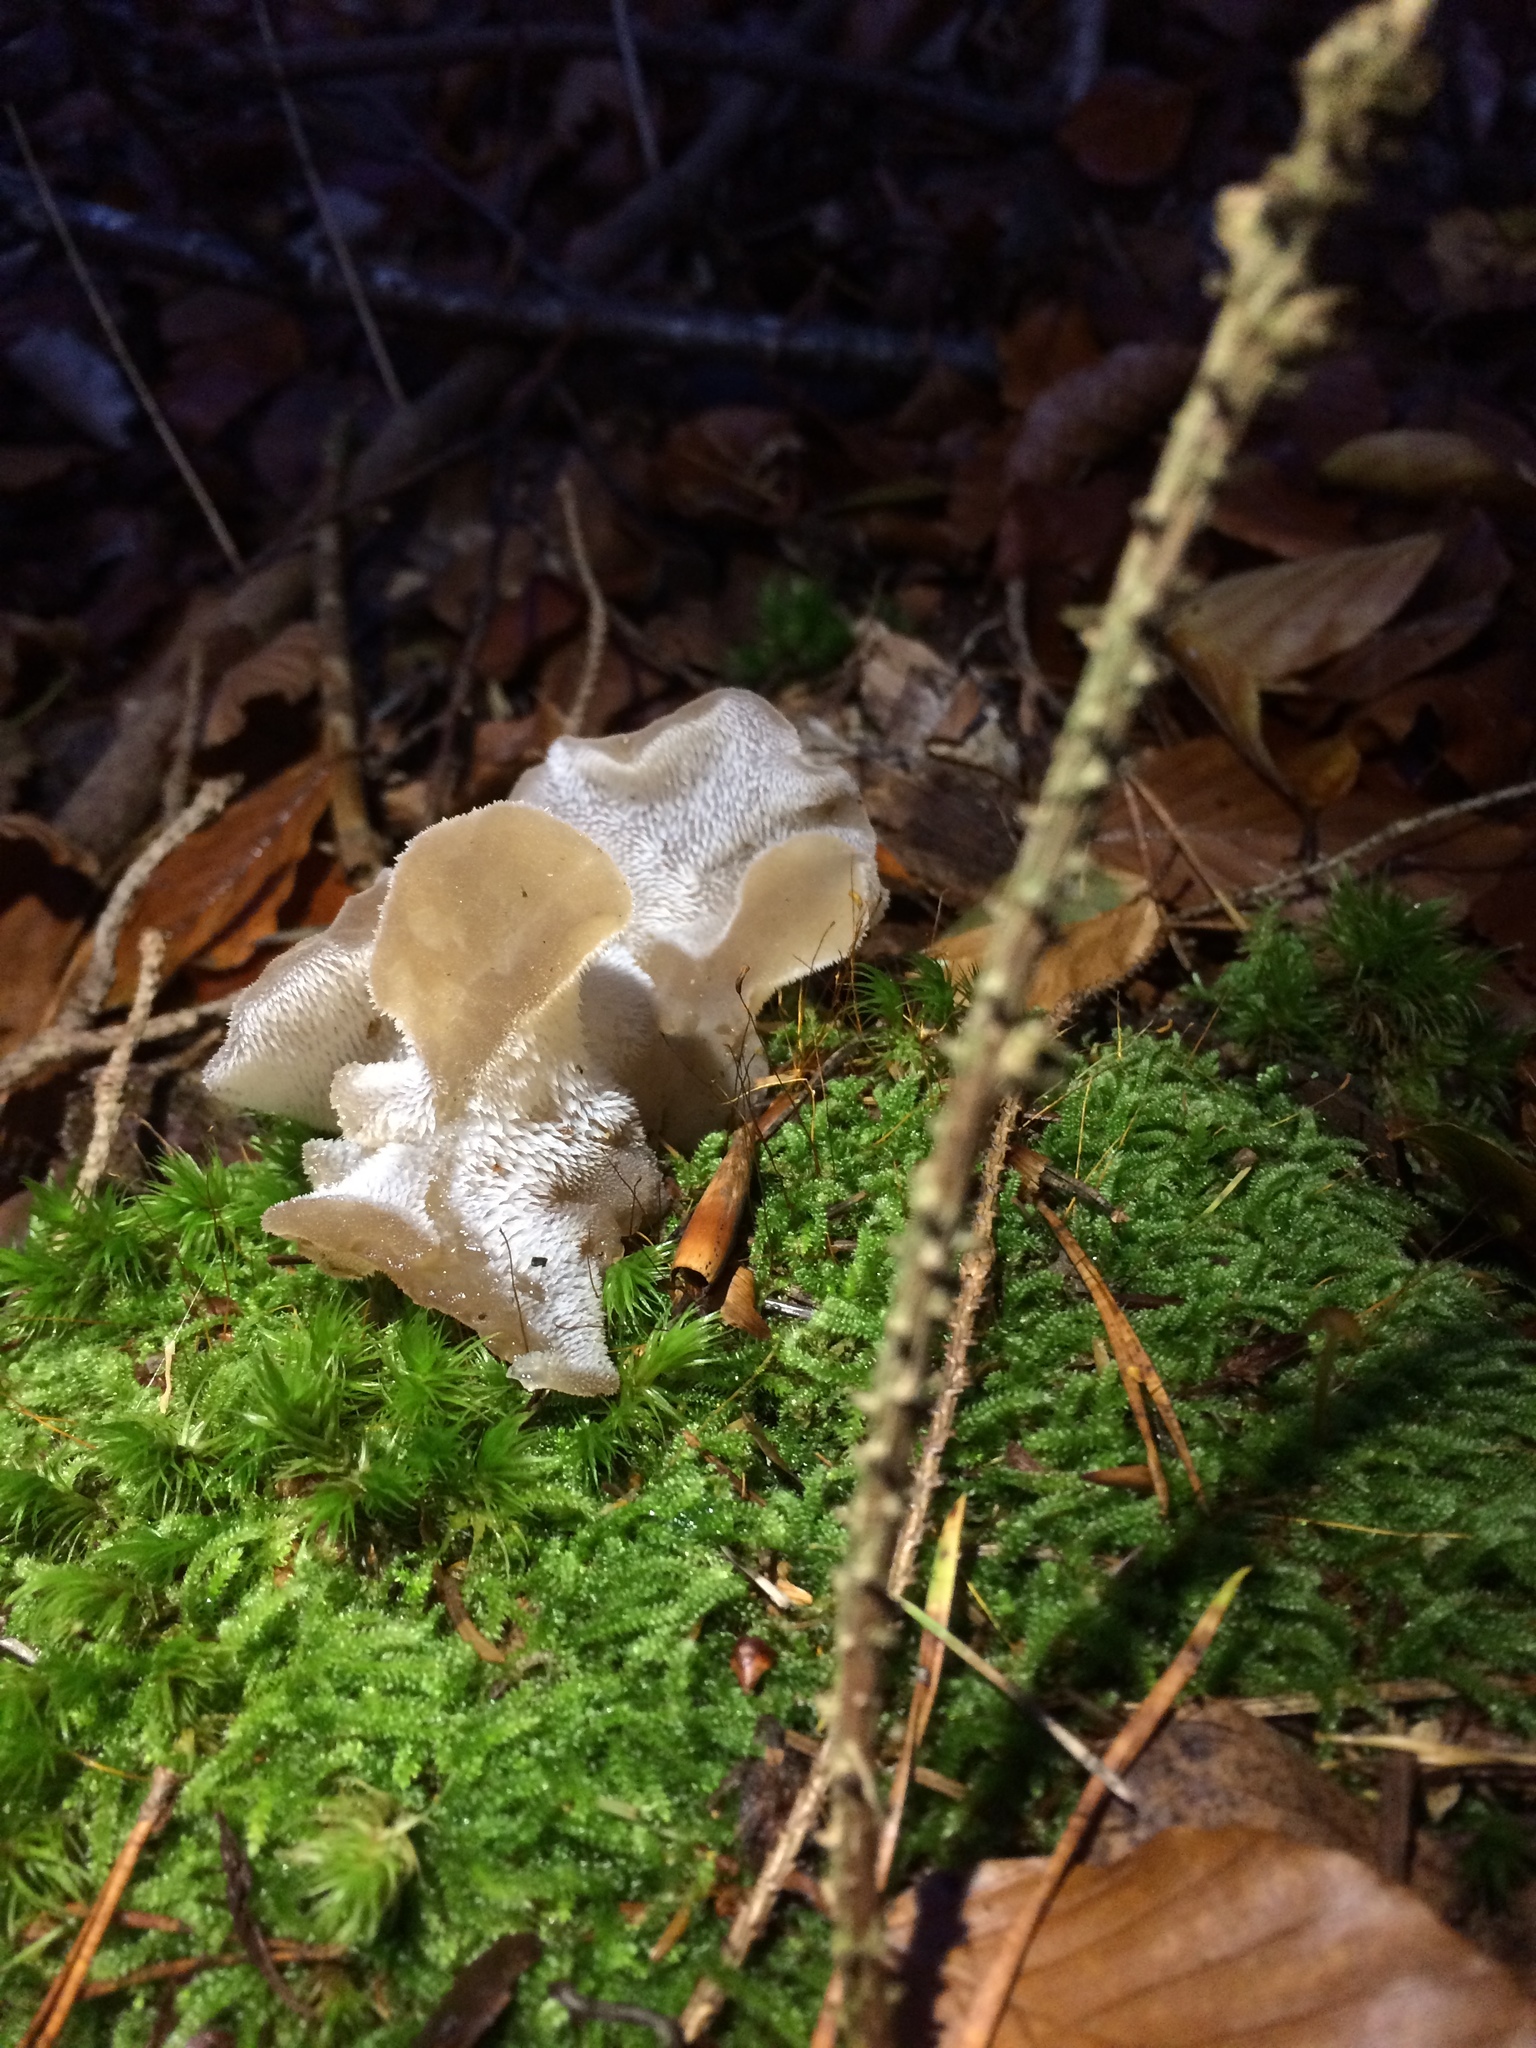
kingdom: Fungi
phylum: Basidiomycota
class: Agaricomycetes
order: Auriculariales
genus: Pseudohydnum
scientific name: Pseudohydnum gelatinosum
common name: Jelly tongue
